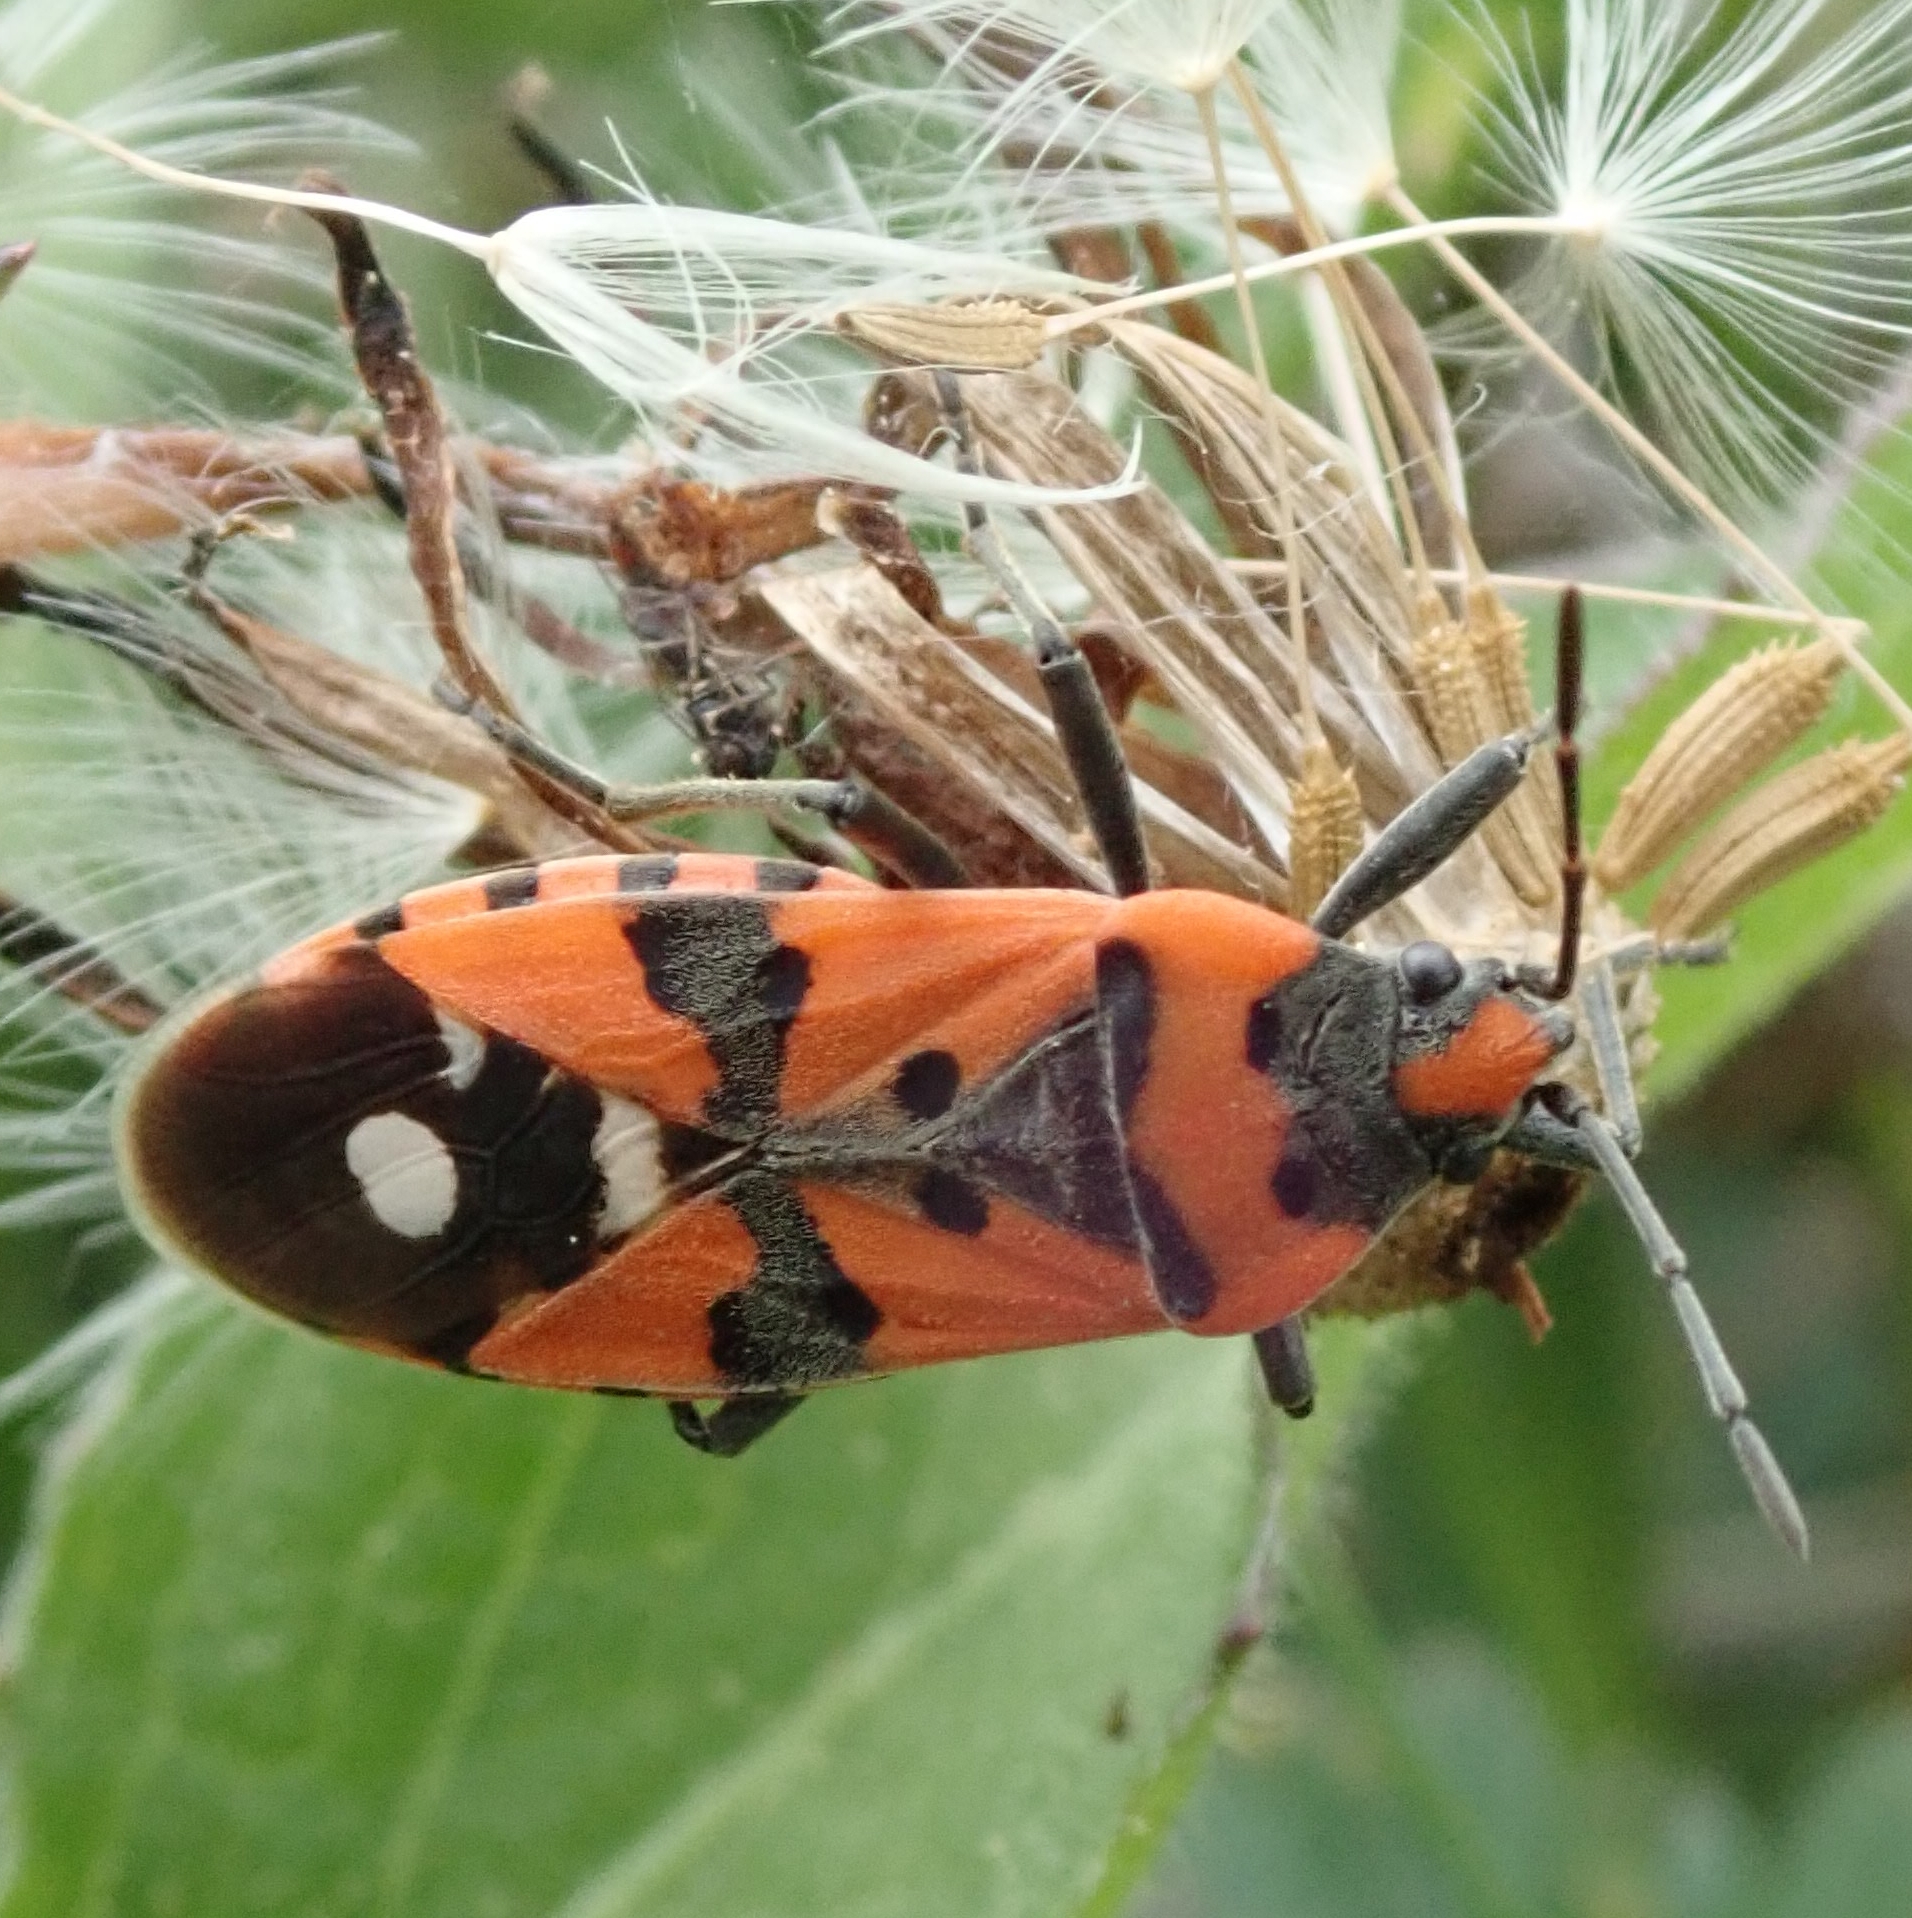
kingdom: Animalia
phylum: Arthropoda
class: Insecta
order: Hemiptera
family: Lygaeidae
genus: Lygaeus
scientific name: Lygaeus equestris
